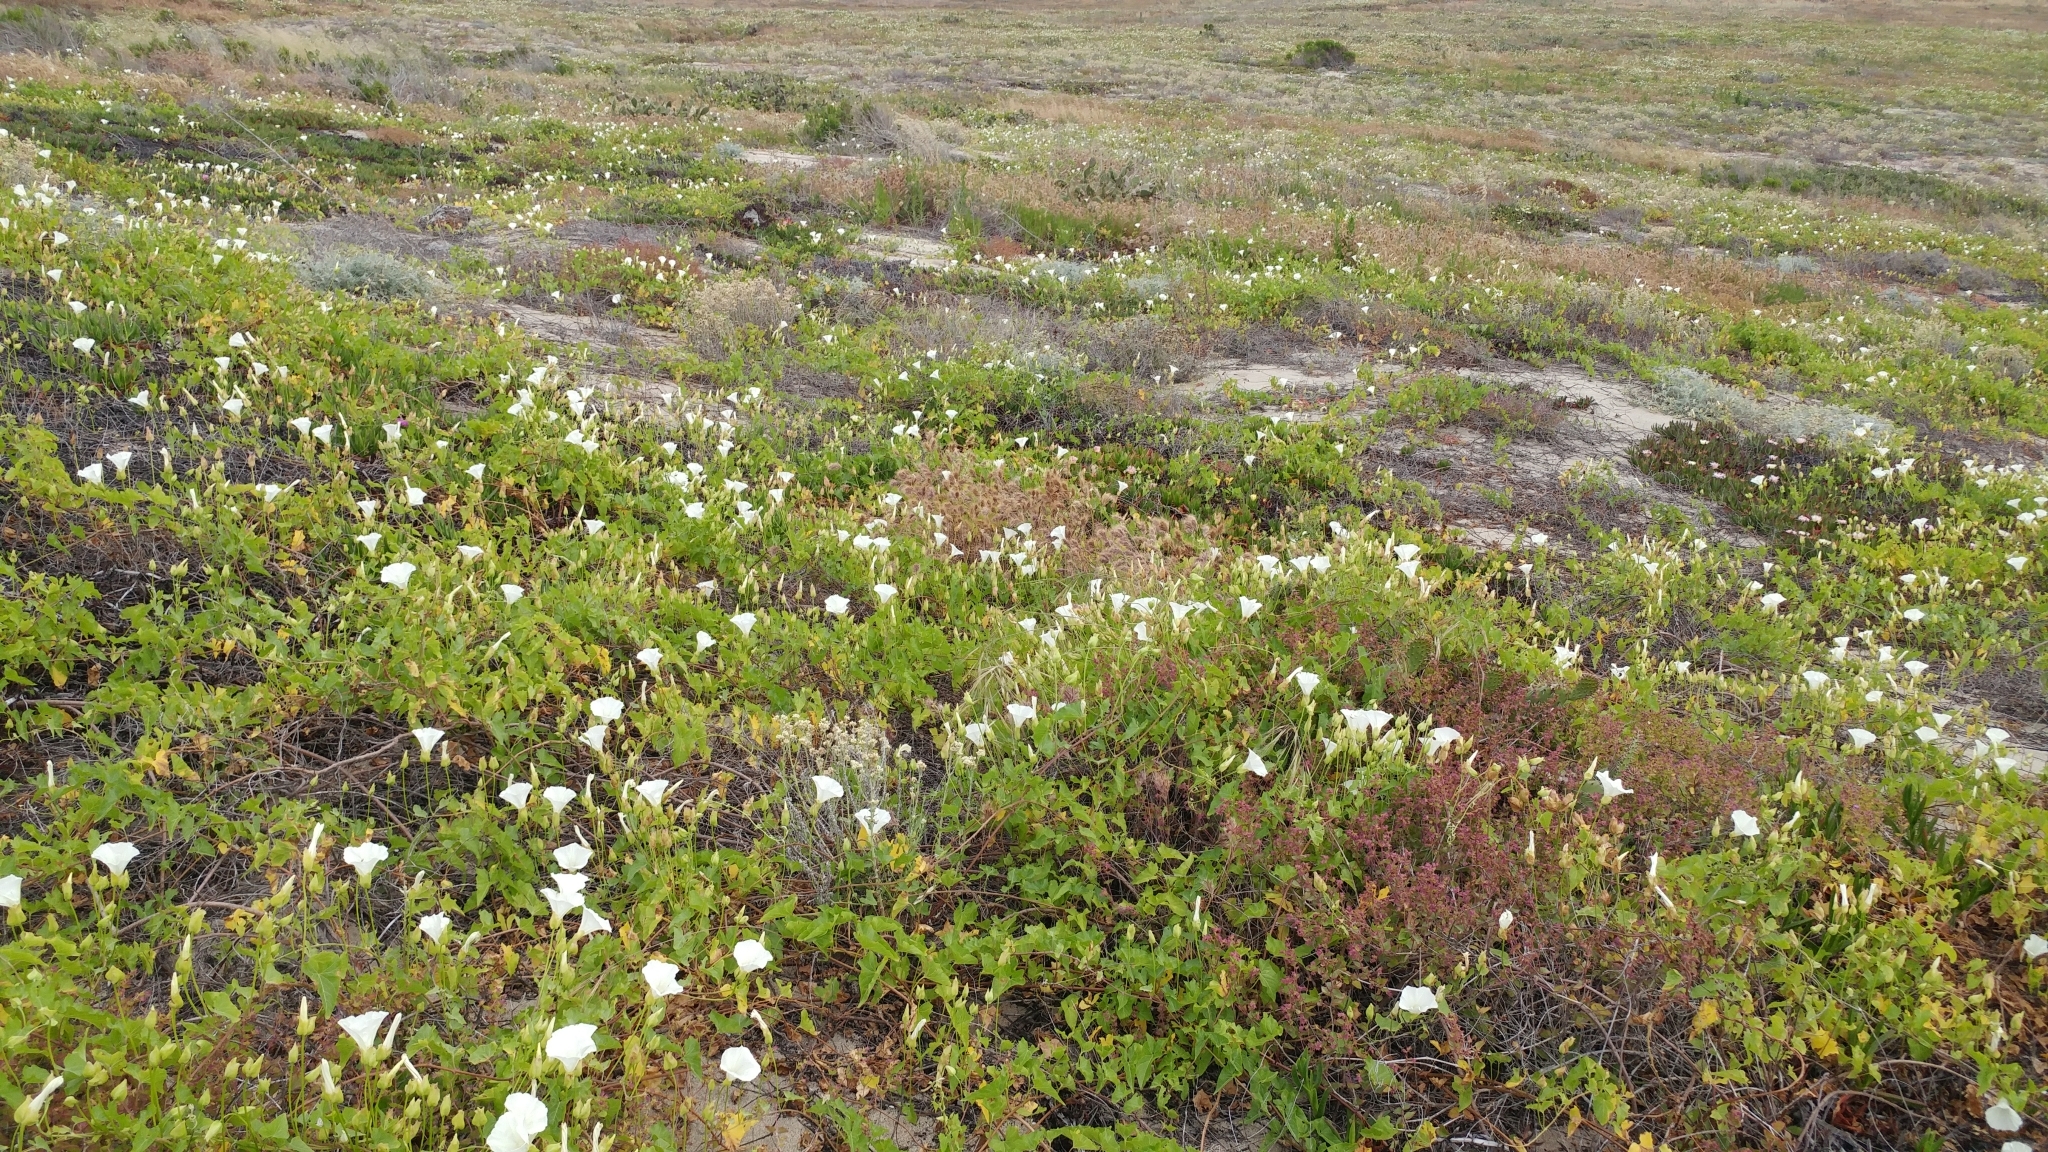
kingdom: Plantae
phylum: Tracheophyta
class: Magnoliopsida
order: Solanales
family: Convolvulaceae
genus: Calystegia
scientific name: Calystegia macrostegia
